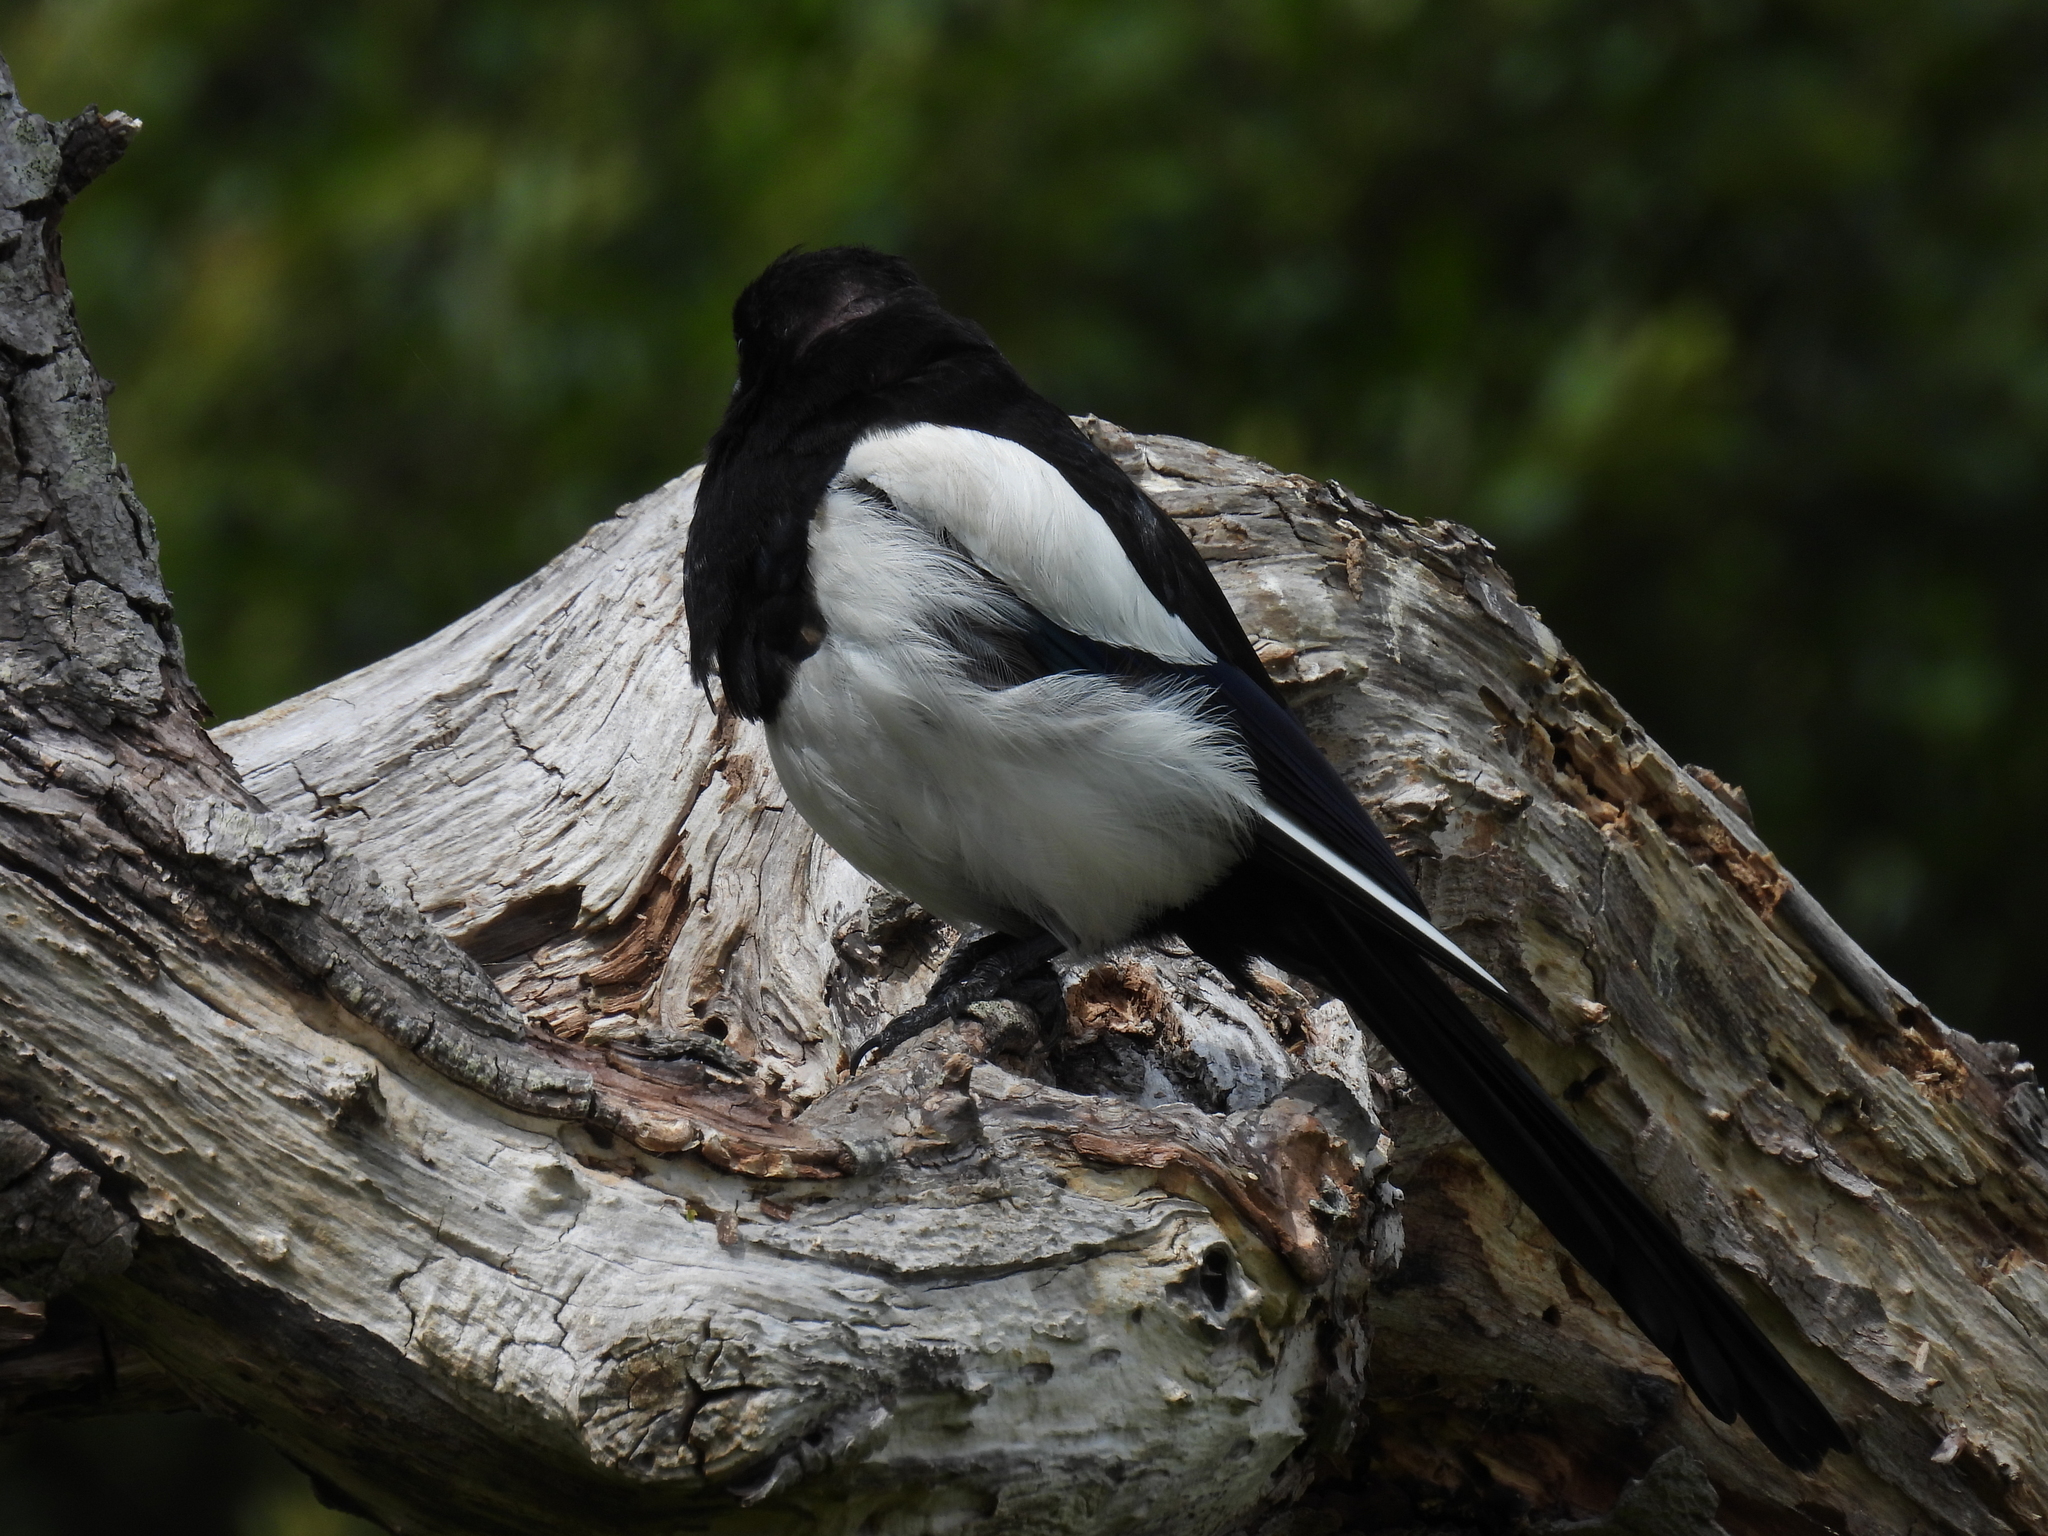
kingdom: Animalia
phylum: Chordata
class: Aves
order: Passeriformes
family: Corvidae
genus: Pica
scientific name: Pica pica
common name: Eurasian magpie
